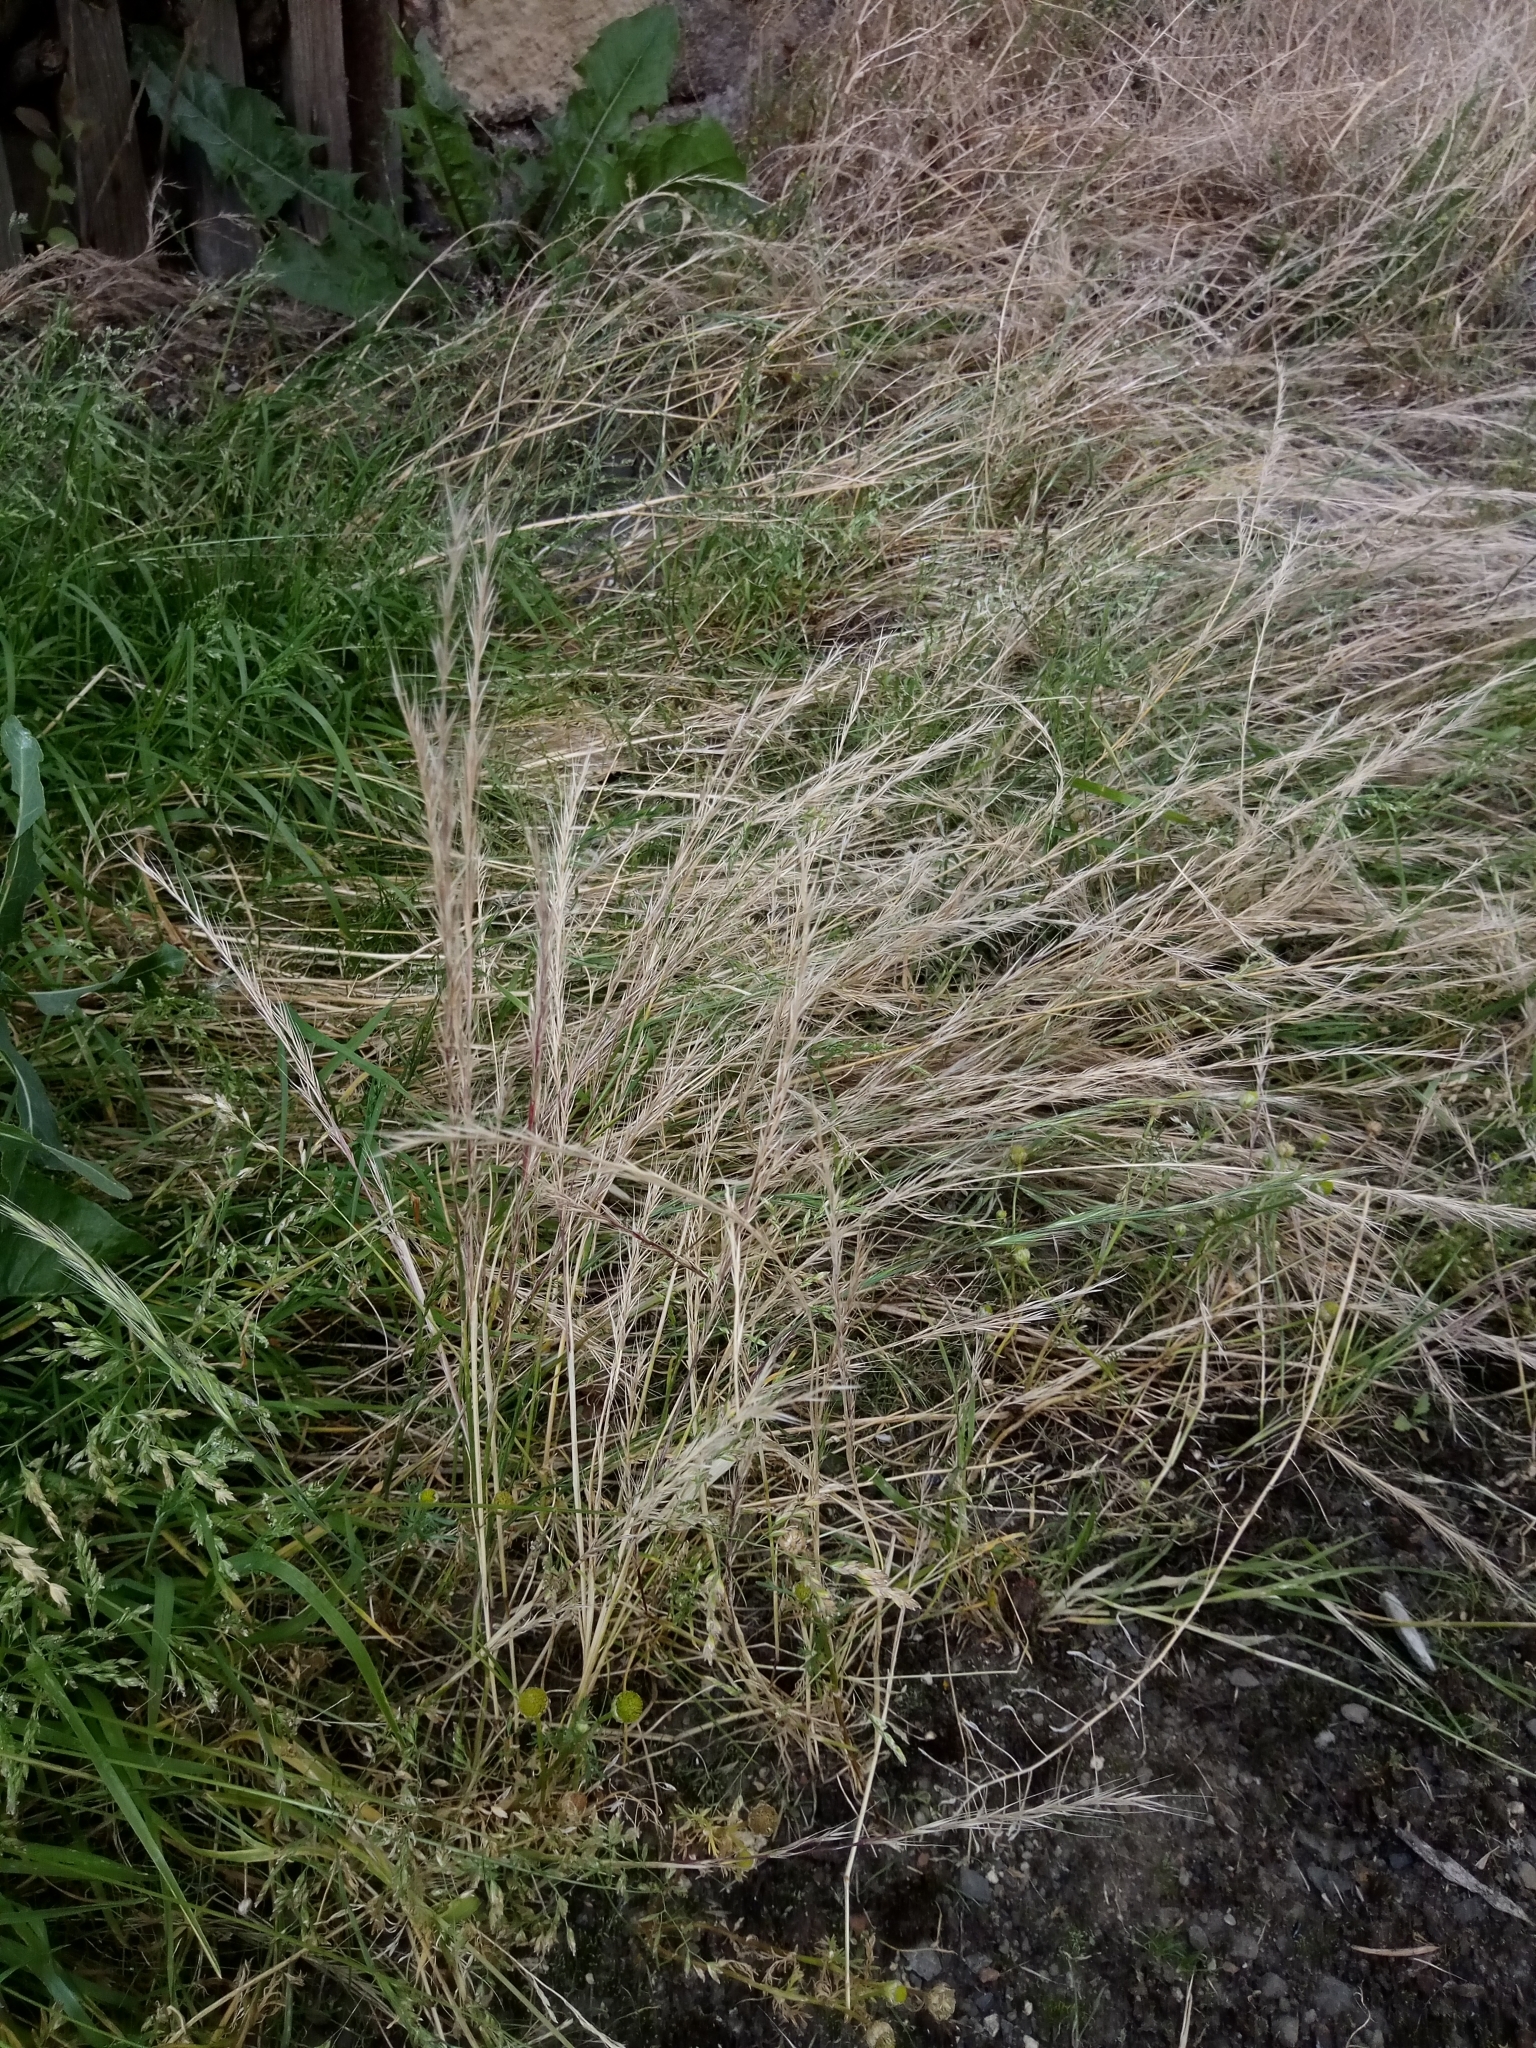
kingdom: Plantae
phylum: Tracheophyta
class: Liliopsida
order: Poales
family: Poaceae
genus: Festuca
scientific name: Festuca myuros
